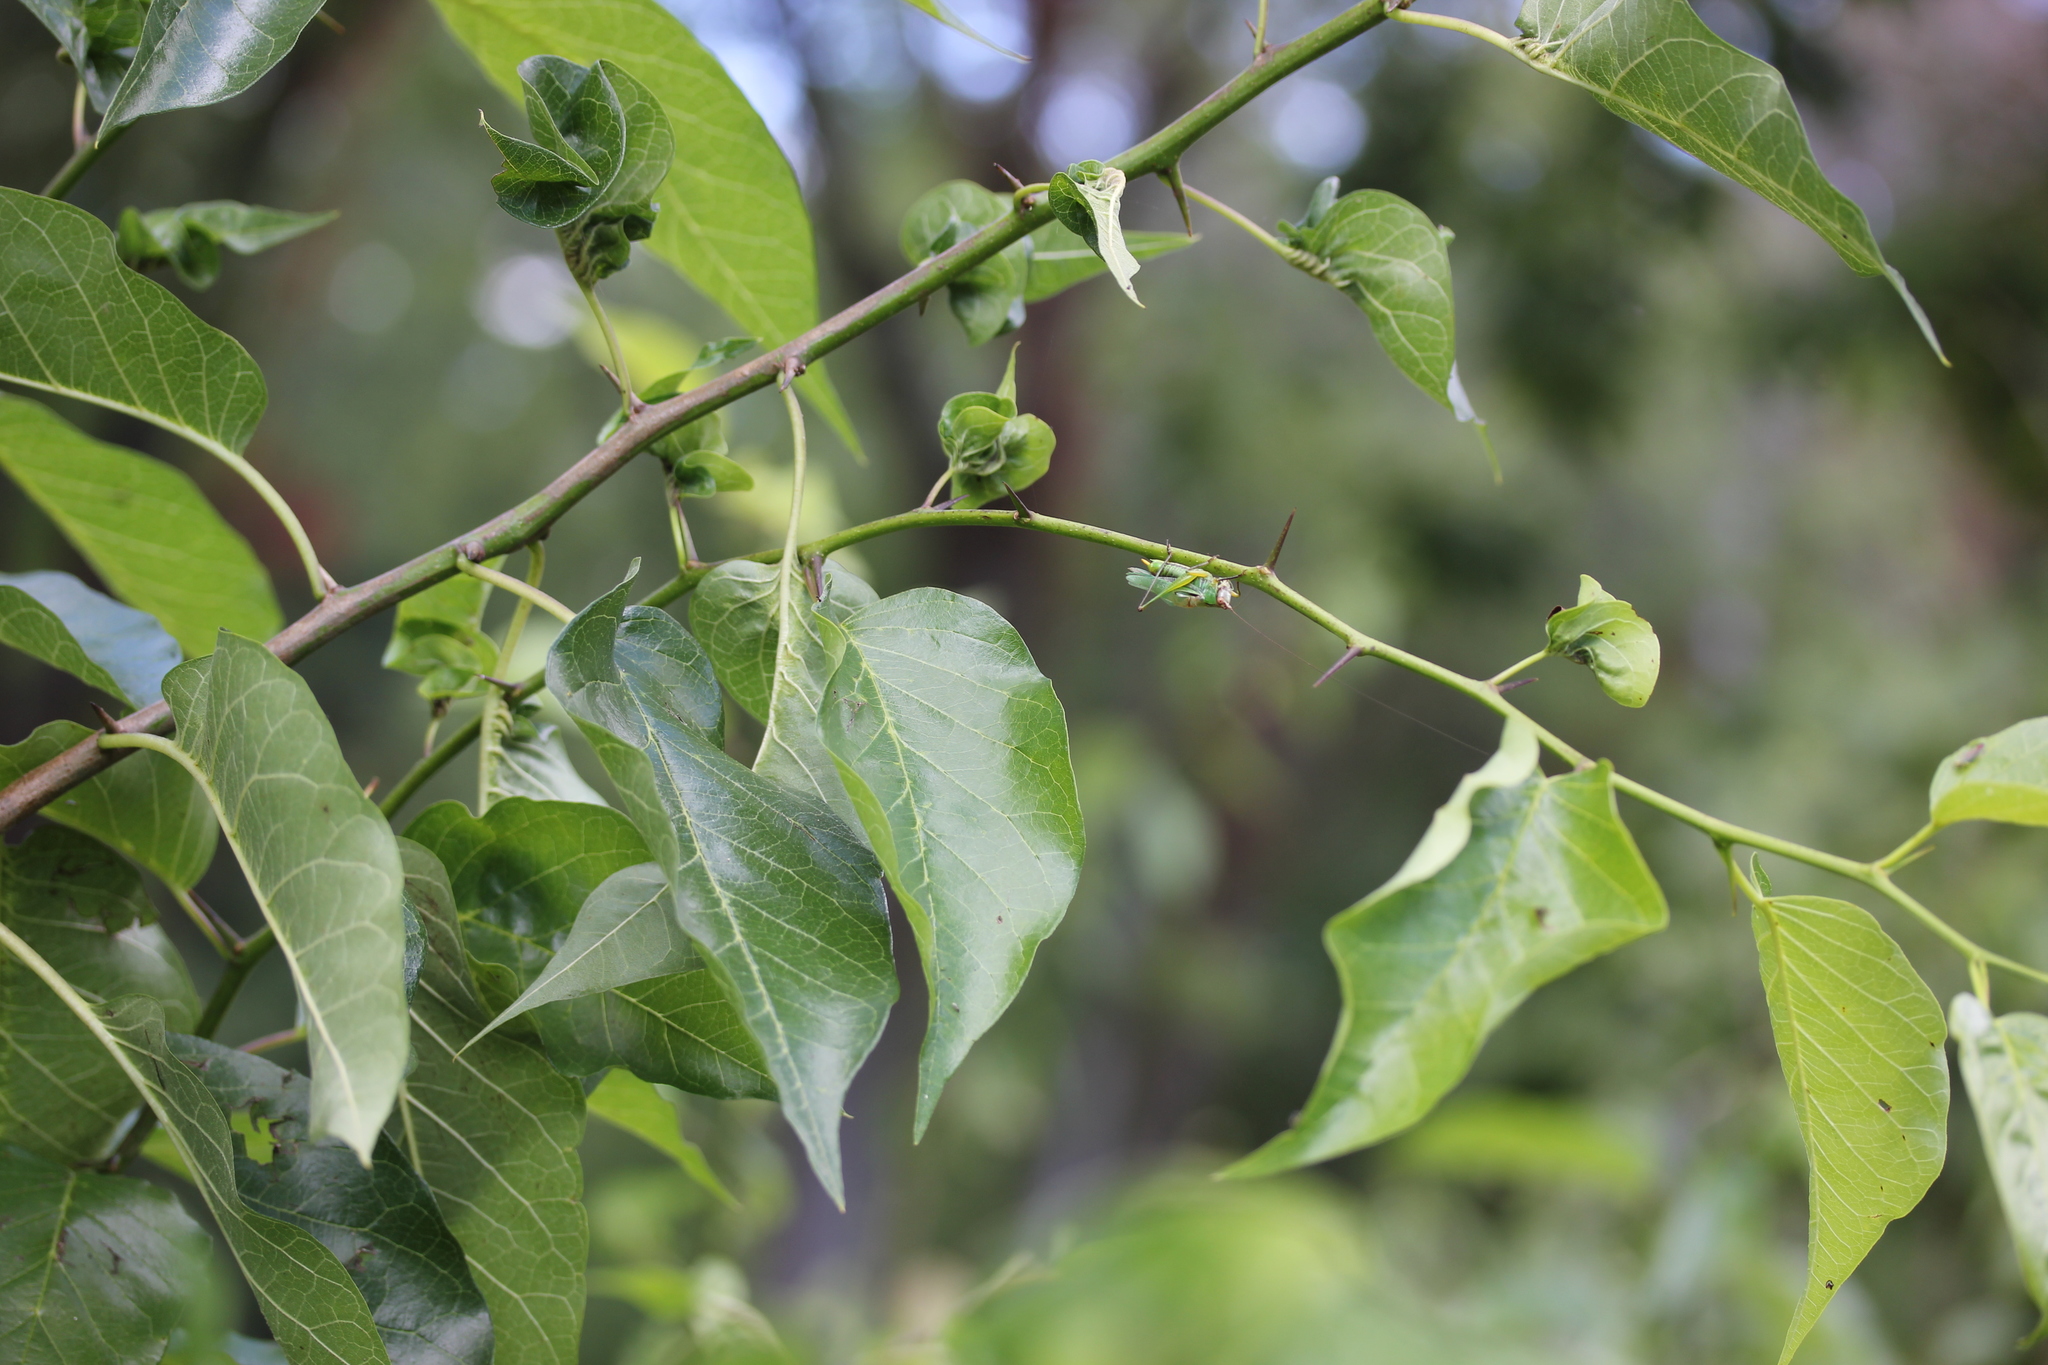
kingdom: Plantae
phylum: Tracheophyta
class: Magnoliopsida
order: Rosales
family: Moraceae
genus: Maclura
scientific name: Maclura pomifera
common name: Osage-orange
